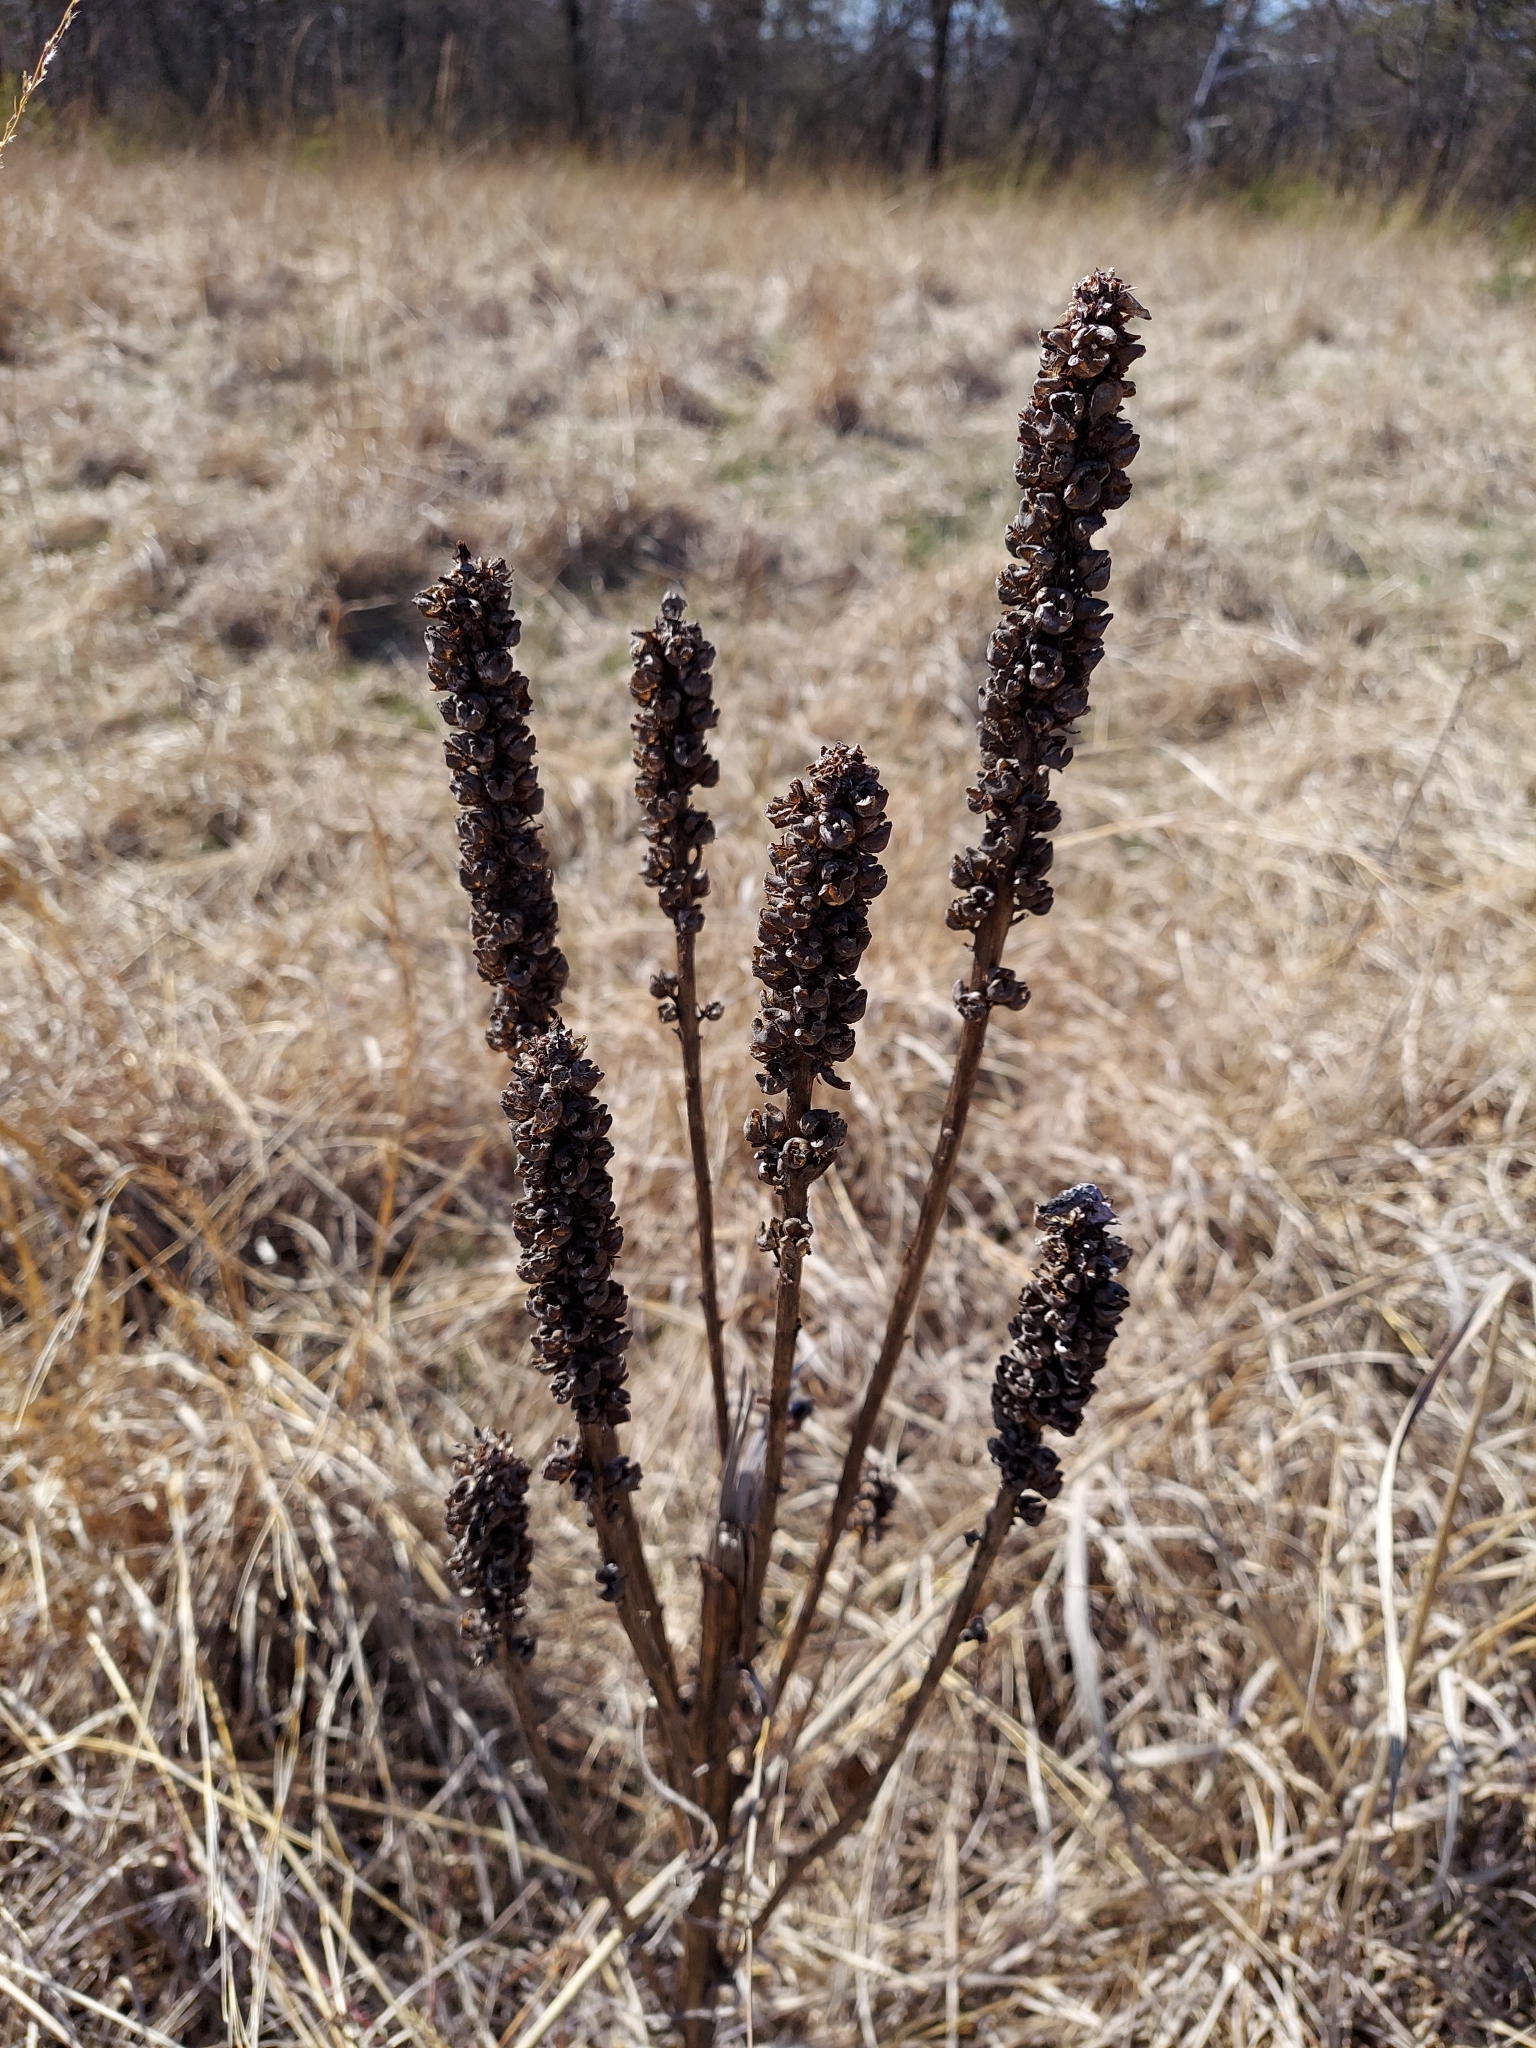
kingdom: Plantae
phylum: Tracheophyta
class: Magnoliopsida
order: Lamiales
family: Scrophulariaceae
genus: Verbascum
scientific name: Verbascum thapsus
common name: Common mullein
